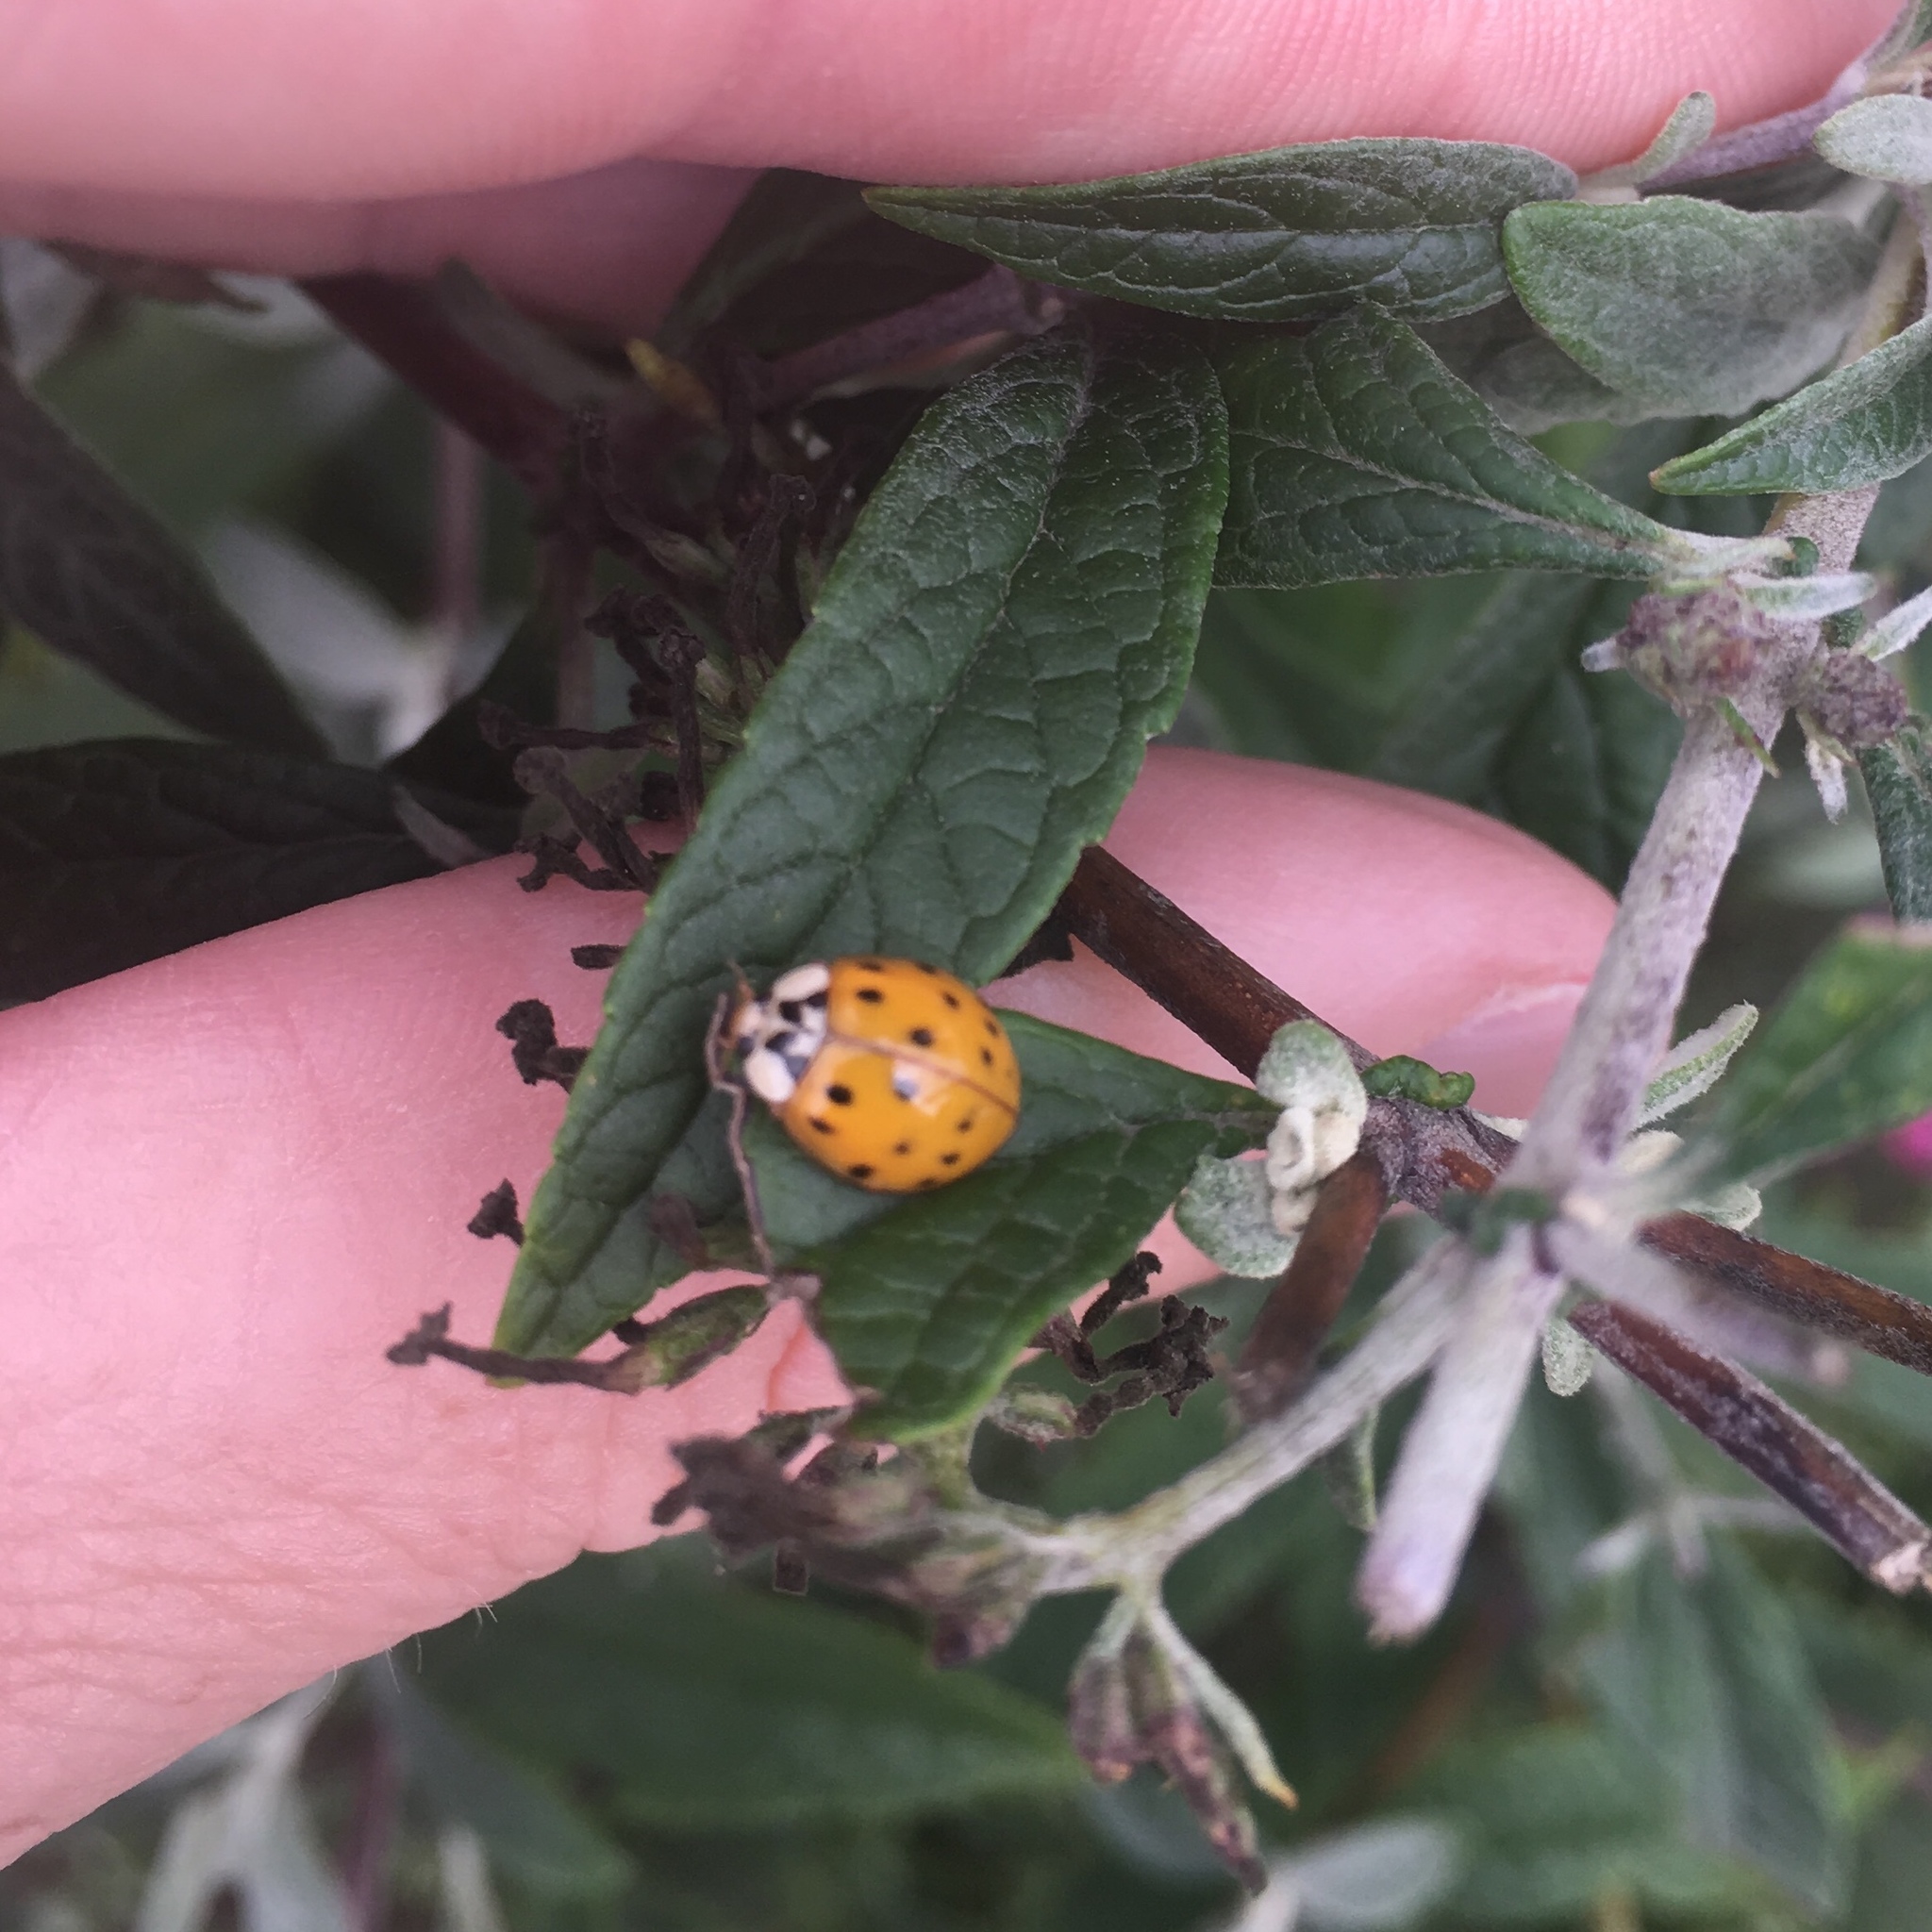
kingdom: Animalia
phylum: Arthropoda
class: Insecta
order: Coleoptera
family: Coccinellidae
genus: Harmonia
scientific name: Harmonia axyridis
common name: Harlequin ladybird
